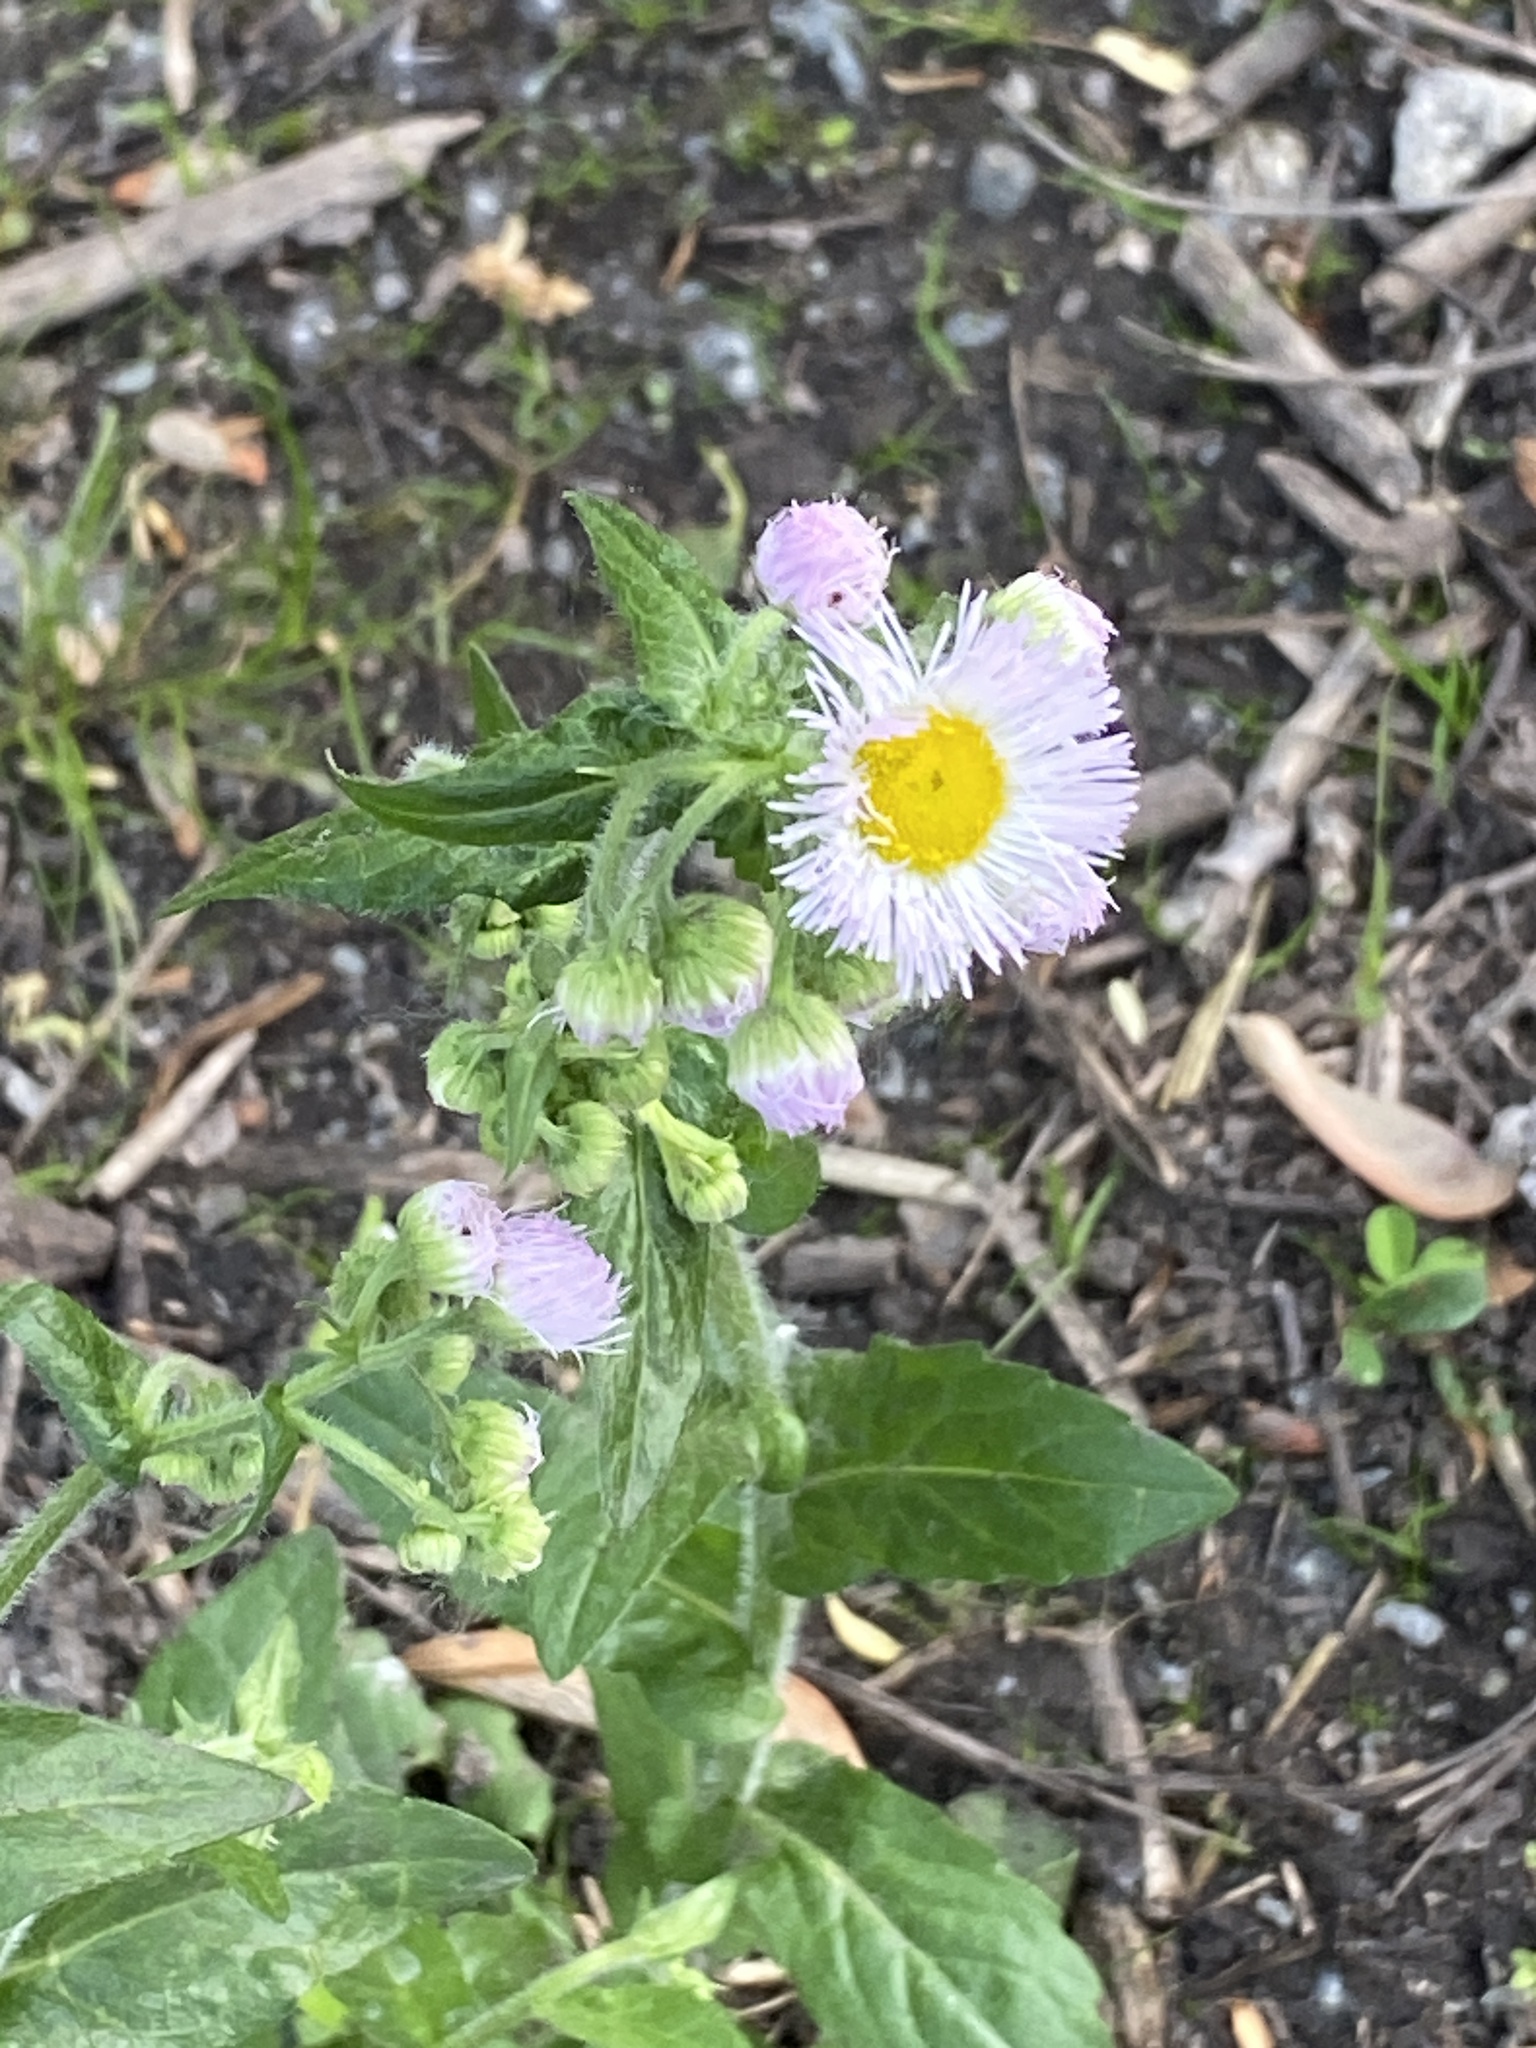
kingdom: Plantae
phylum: Tracheophyta
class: Magnoliopsida
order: Asterales
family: Asteraceae
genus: Erigeron
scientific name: Erigeron philadelphicus
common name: Robin's-plantain
